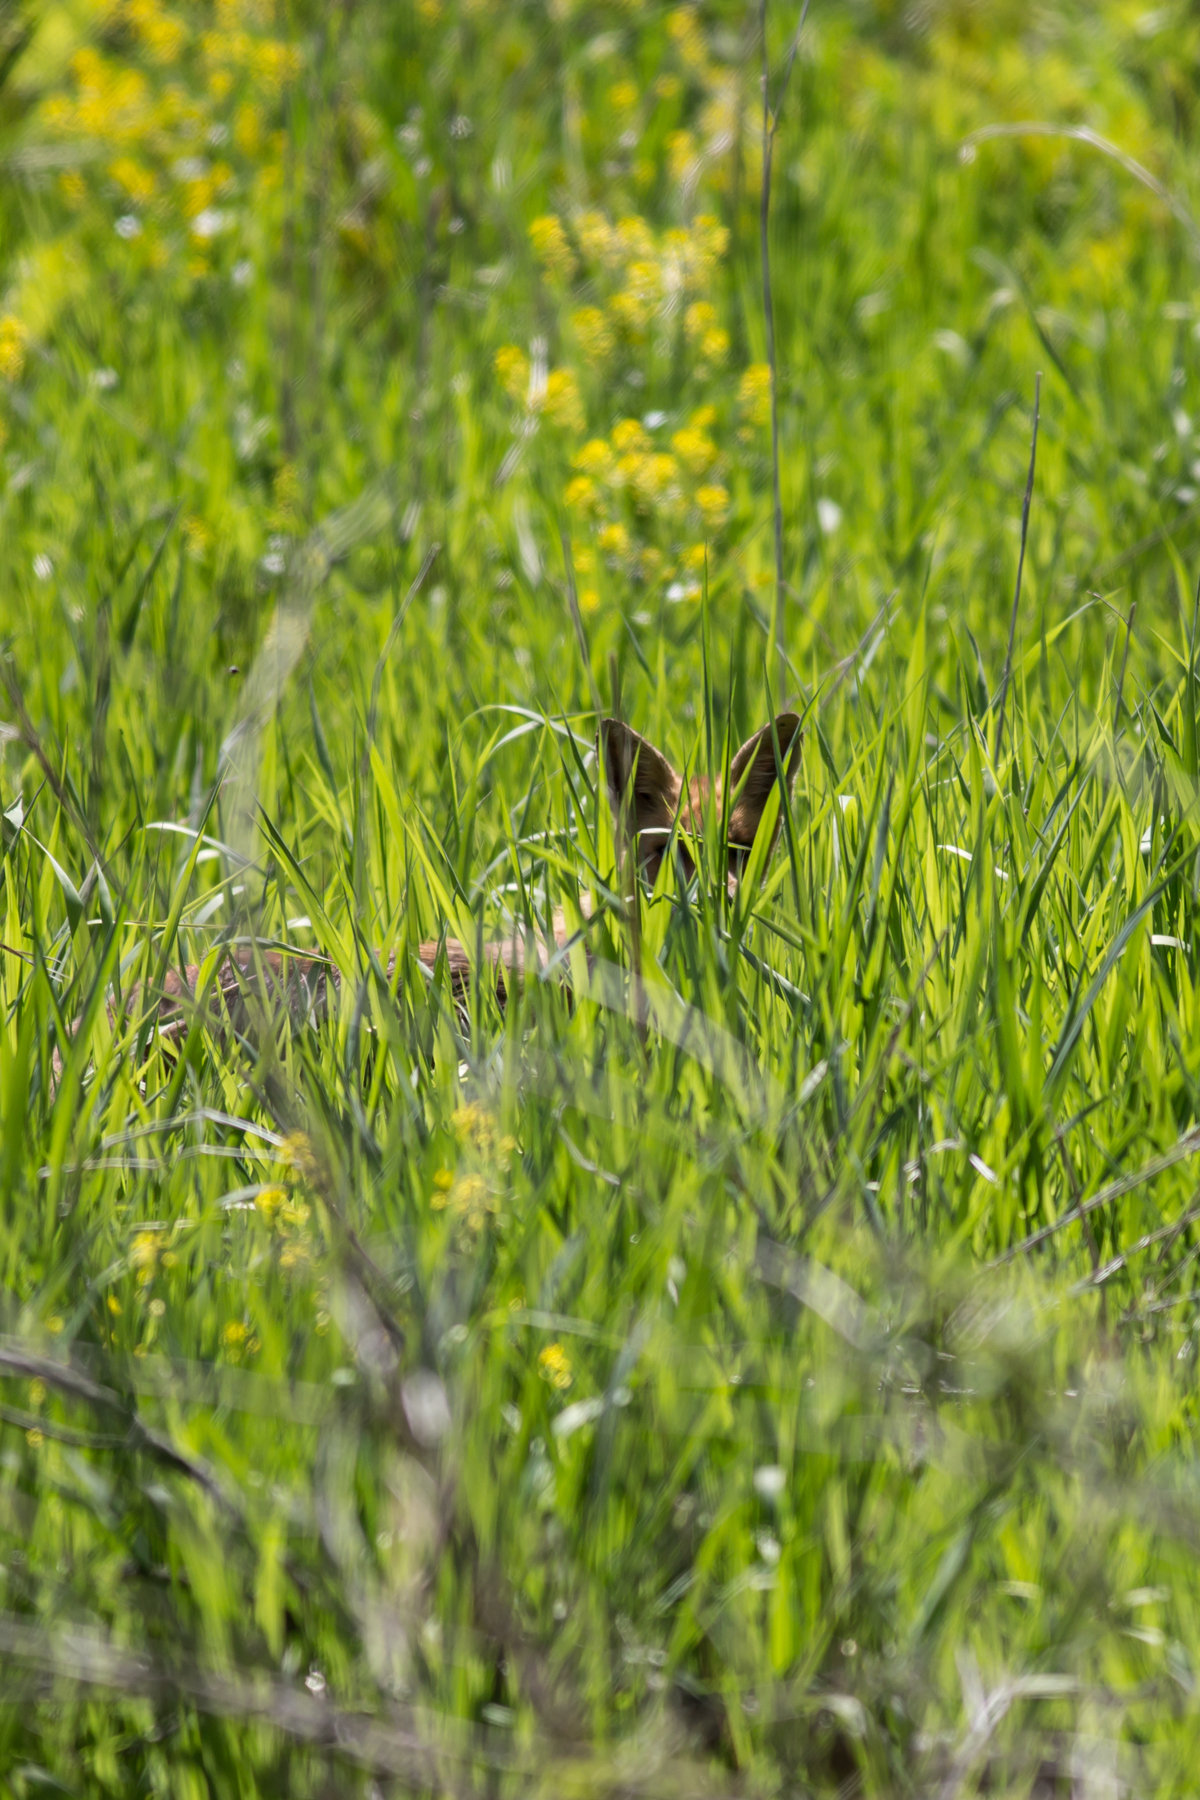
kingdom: Animalia
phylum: Chordata
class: Mammalia
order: Carnivora
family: Canidae
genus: Vulpes
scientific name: Vulpes vulpes
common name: Red fox
